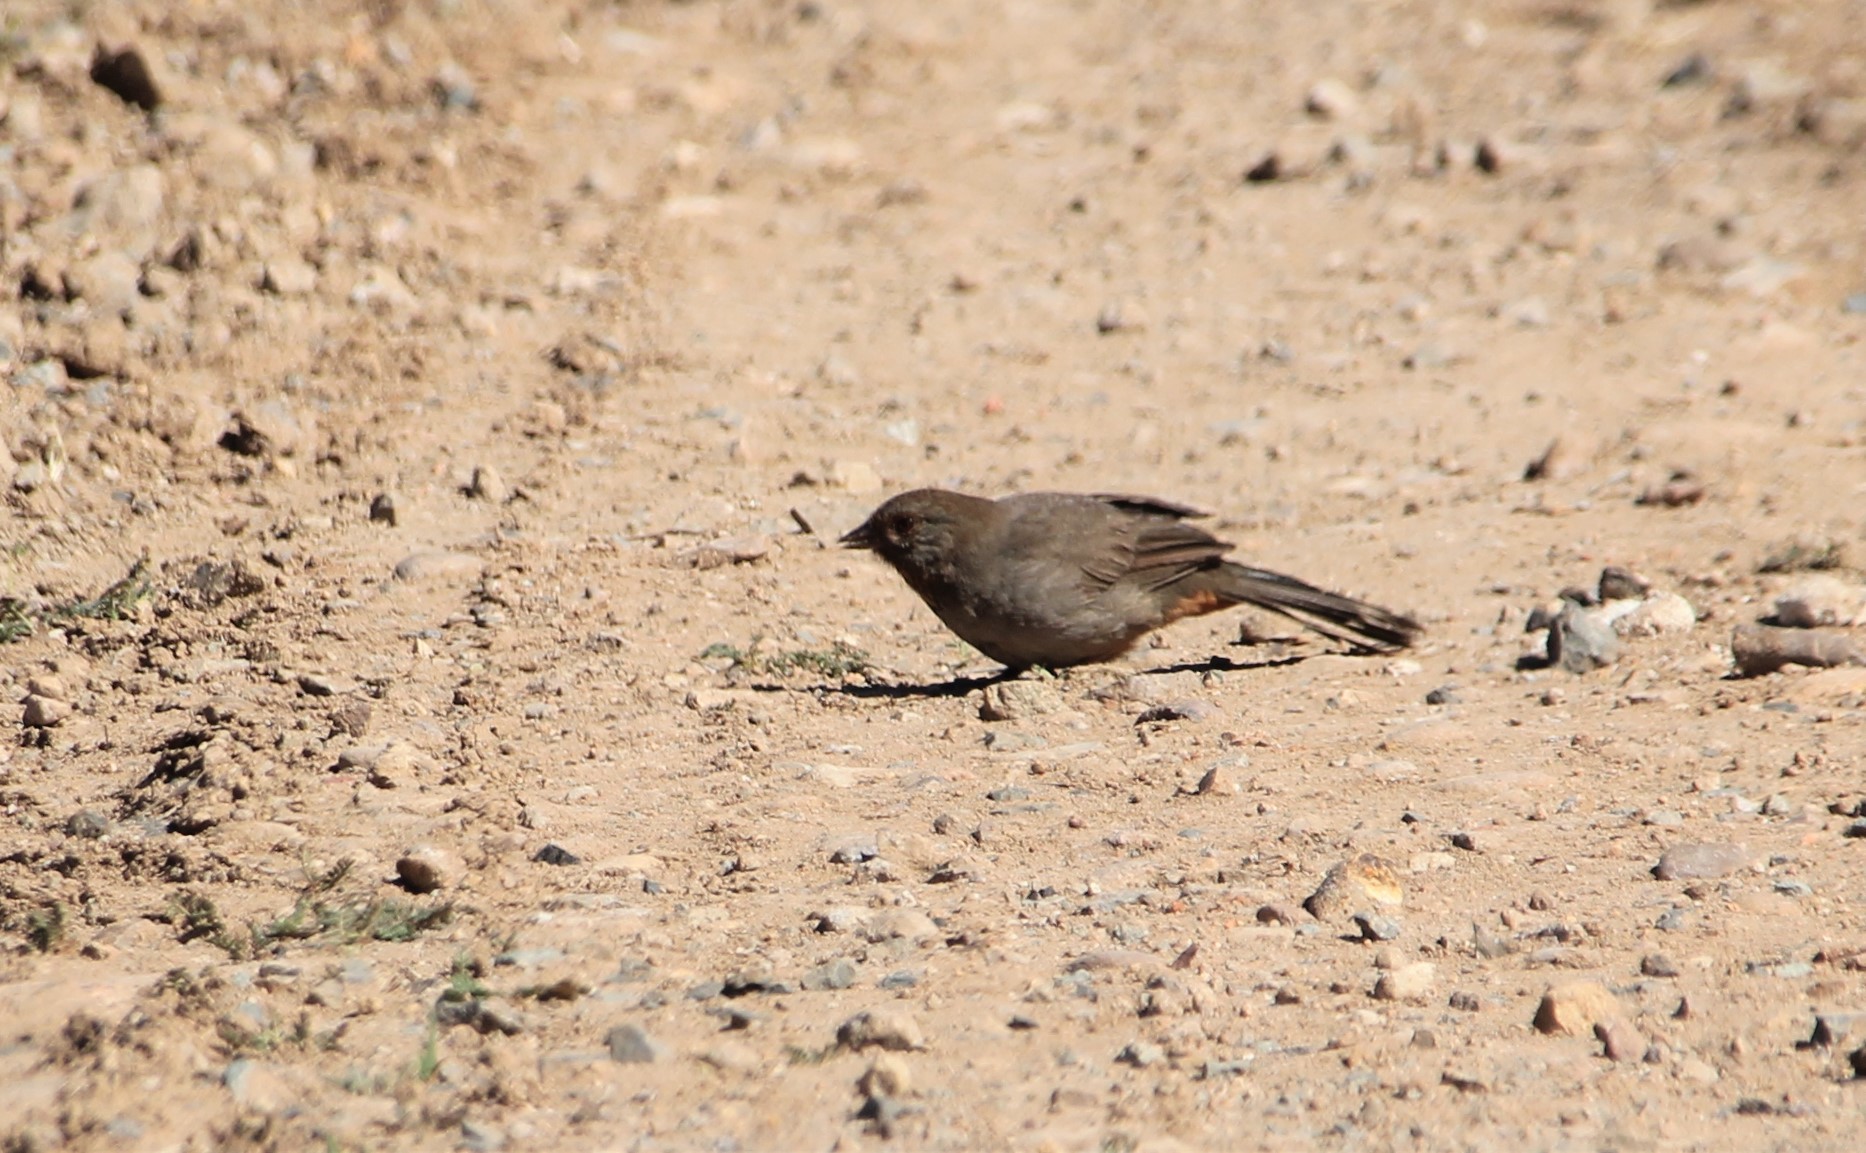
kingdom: Animalia
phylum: Chordata
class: Aves
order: Passeriformes
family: Passerellidae
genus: Melozone
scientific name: Melozone crissalis
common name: California towhee
